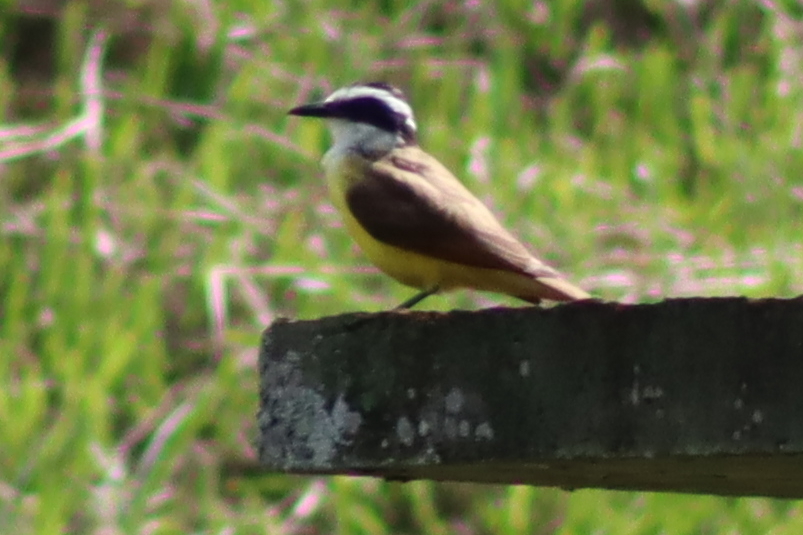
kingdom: Animalia
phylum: Chordata
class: Aves
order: Passeriformes
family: Tyrannidae
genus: Pitangus
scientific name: Pitangus sulphuratus
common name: Great kiskadee
